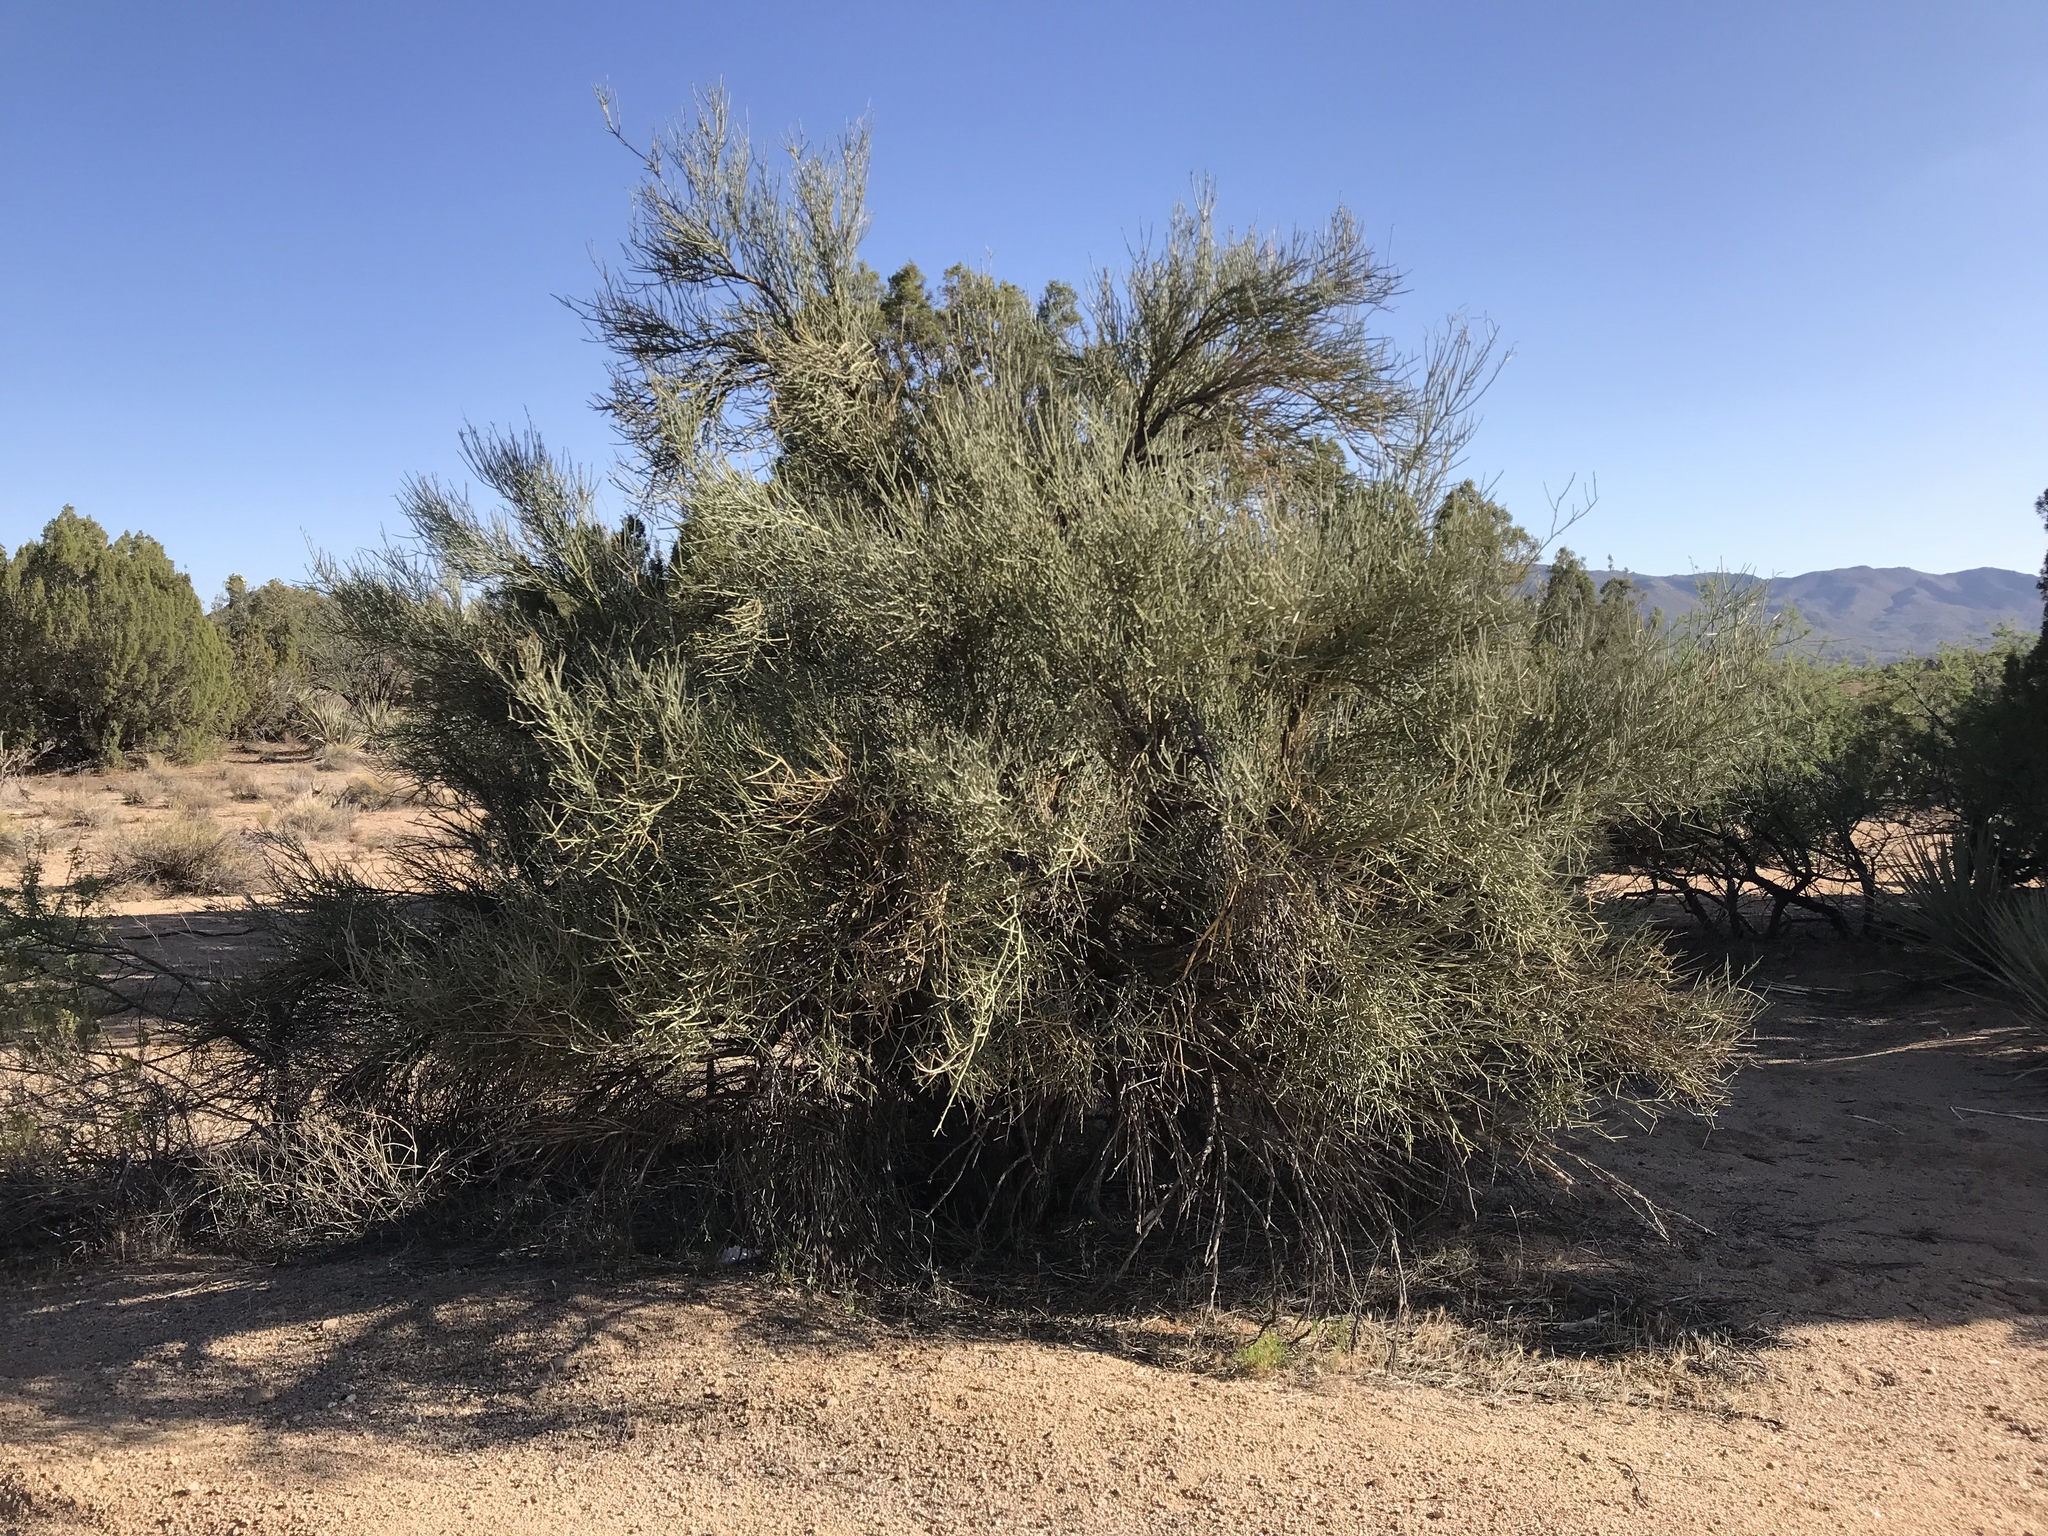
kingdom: Plantae
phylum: Tracheophyta
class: Magnoliopsida
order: Celastrales
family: Celastraceae
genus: Canotia
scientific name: Canotia holacantha
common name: Crucifixion thorns
